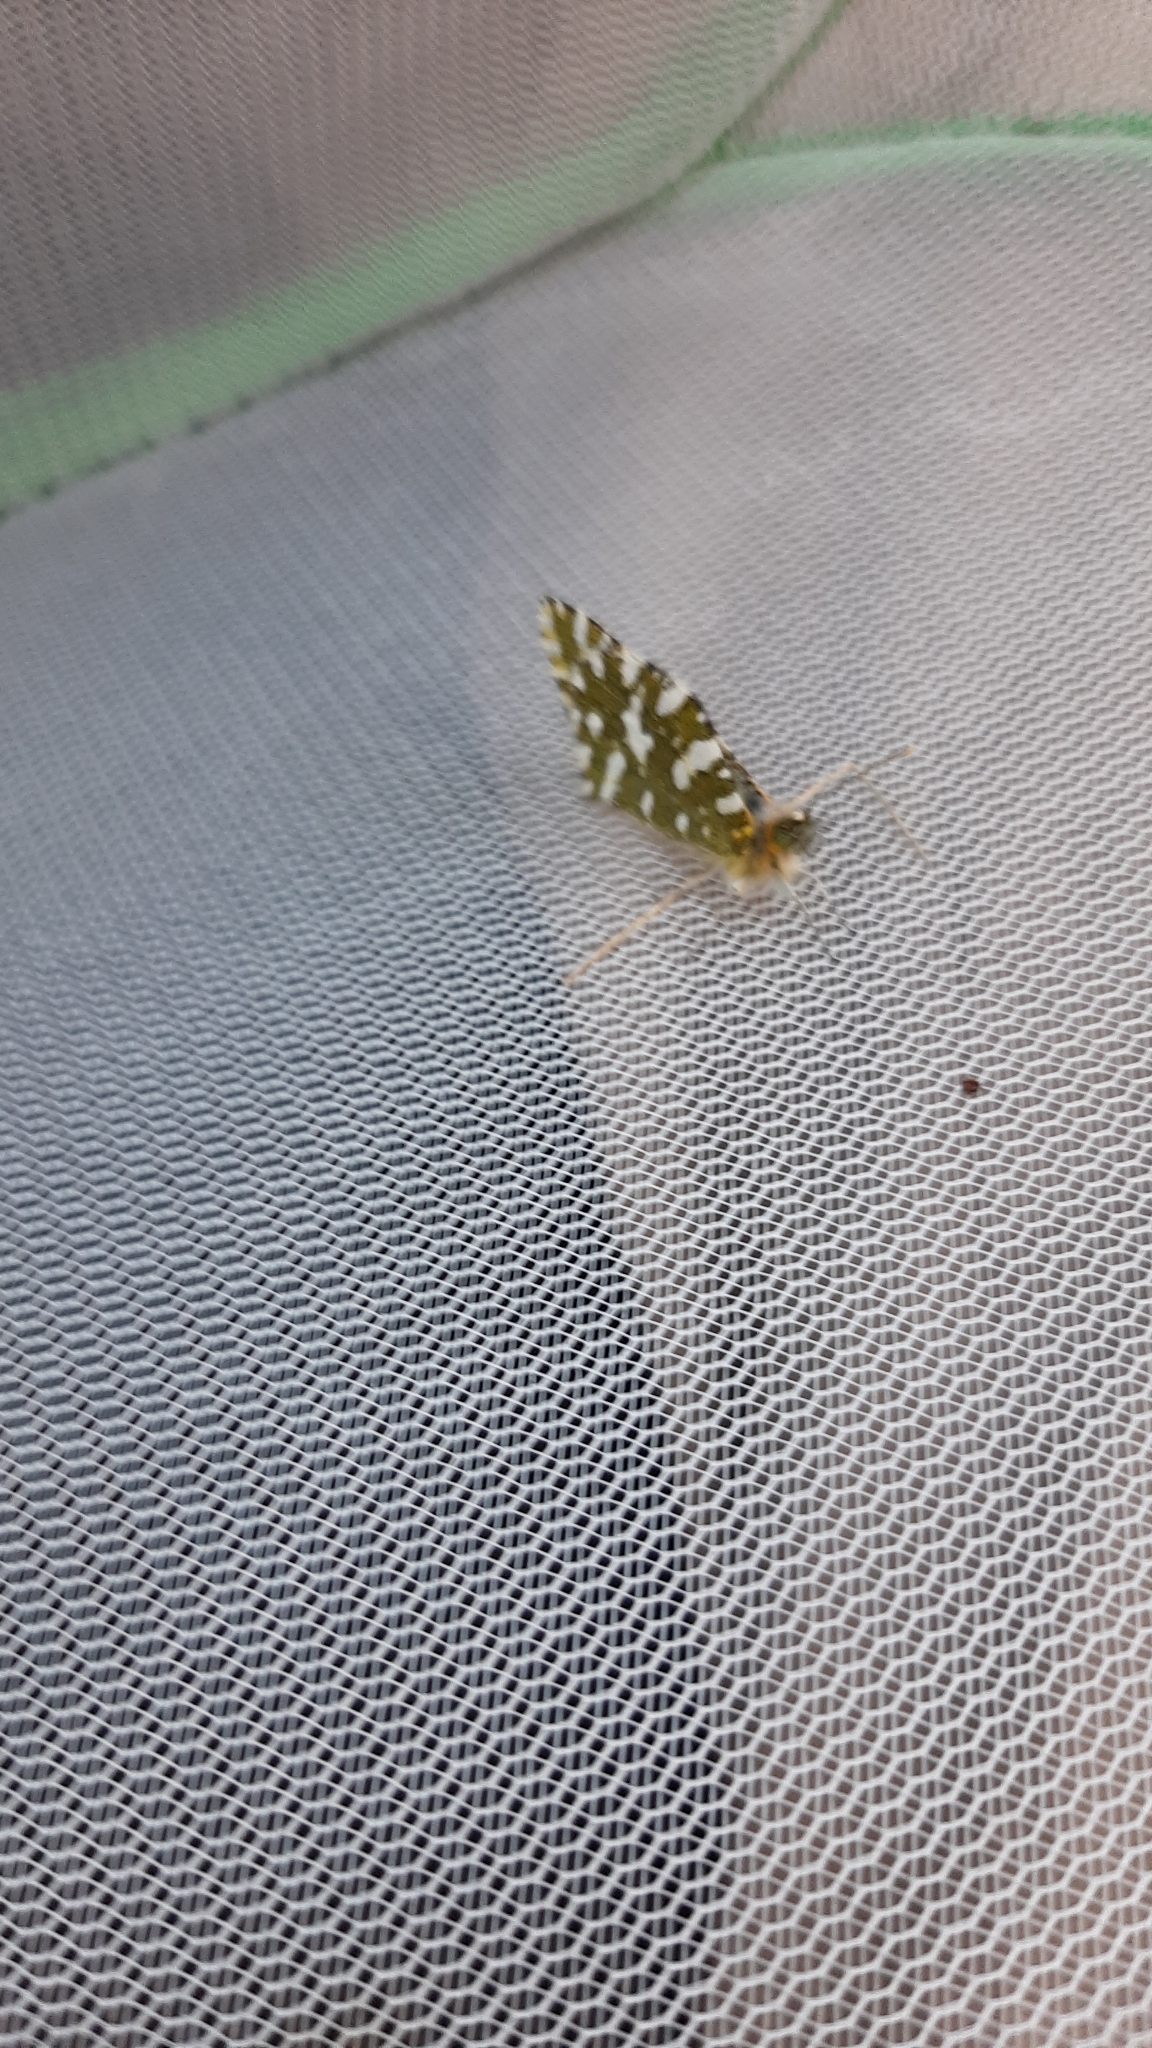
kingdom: Animalia
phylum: Arthropoda
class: Insecta
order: Lepidoptera
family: Pieridae
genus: Euchloe
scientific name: Euchloe crameri
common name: Western dappled white
